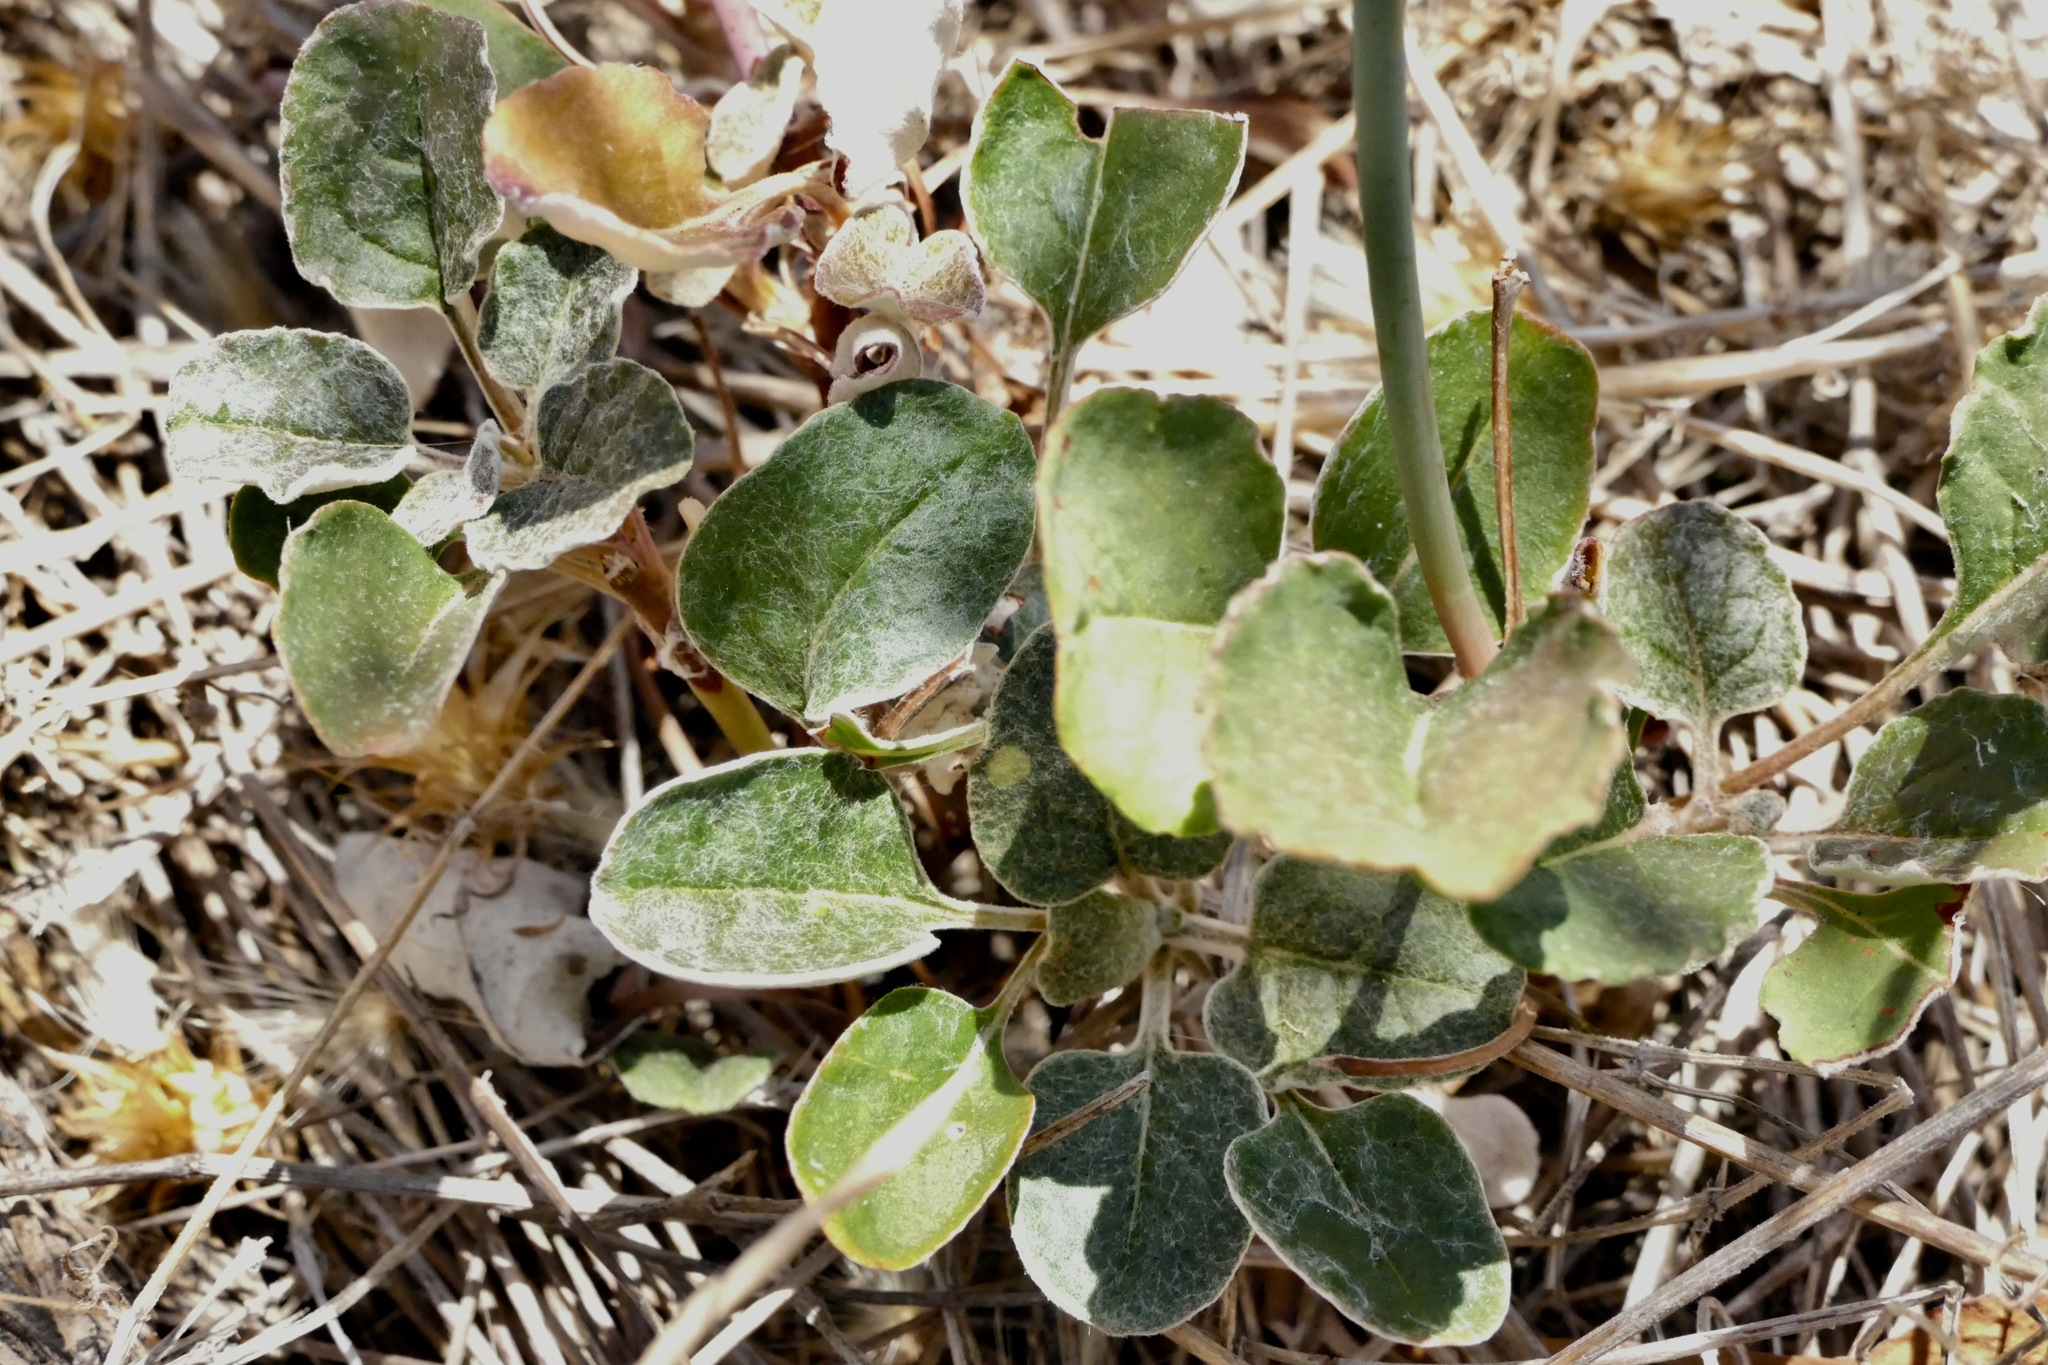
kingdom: Plantae
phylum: Tracheophyta
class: Magnoliopsida
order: Caryophyllales
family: Polygonaceae
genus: Eriogonum
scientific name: Eriogonum nudum
